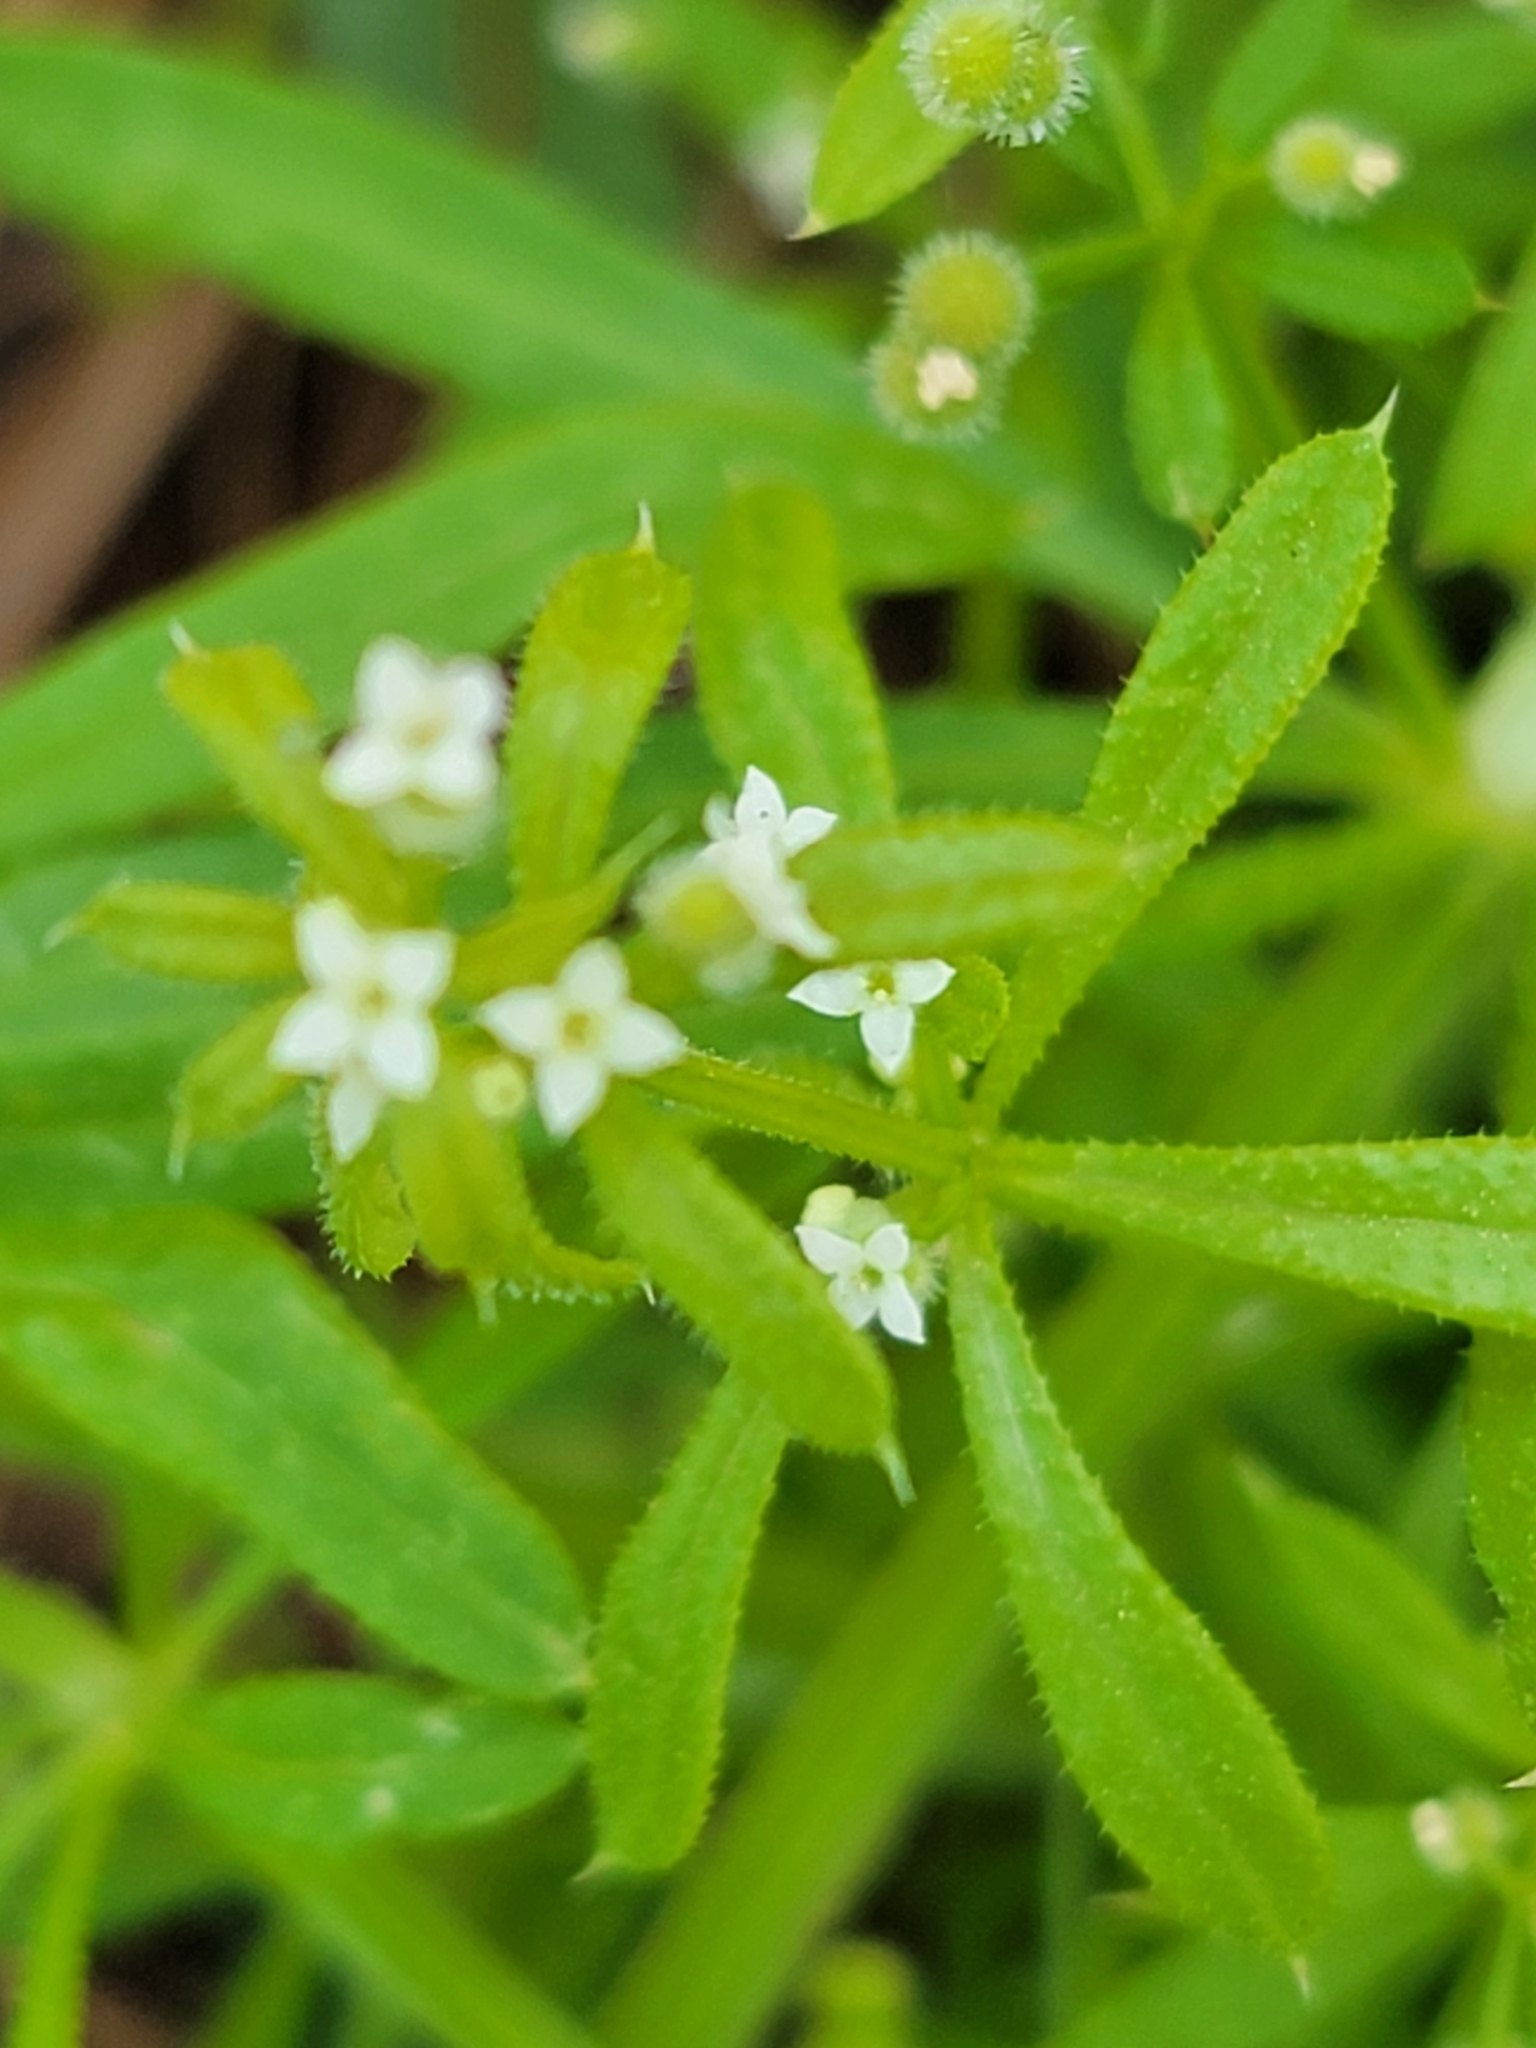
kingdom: Plantae
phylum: Tracheophyta
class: Magnoliopsida
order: Gentianales
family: Rubiaceae
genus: Galium
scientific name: Galium aparine
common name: Cleavers
